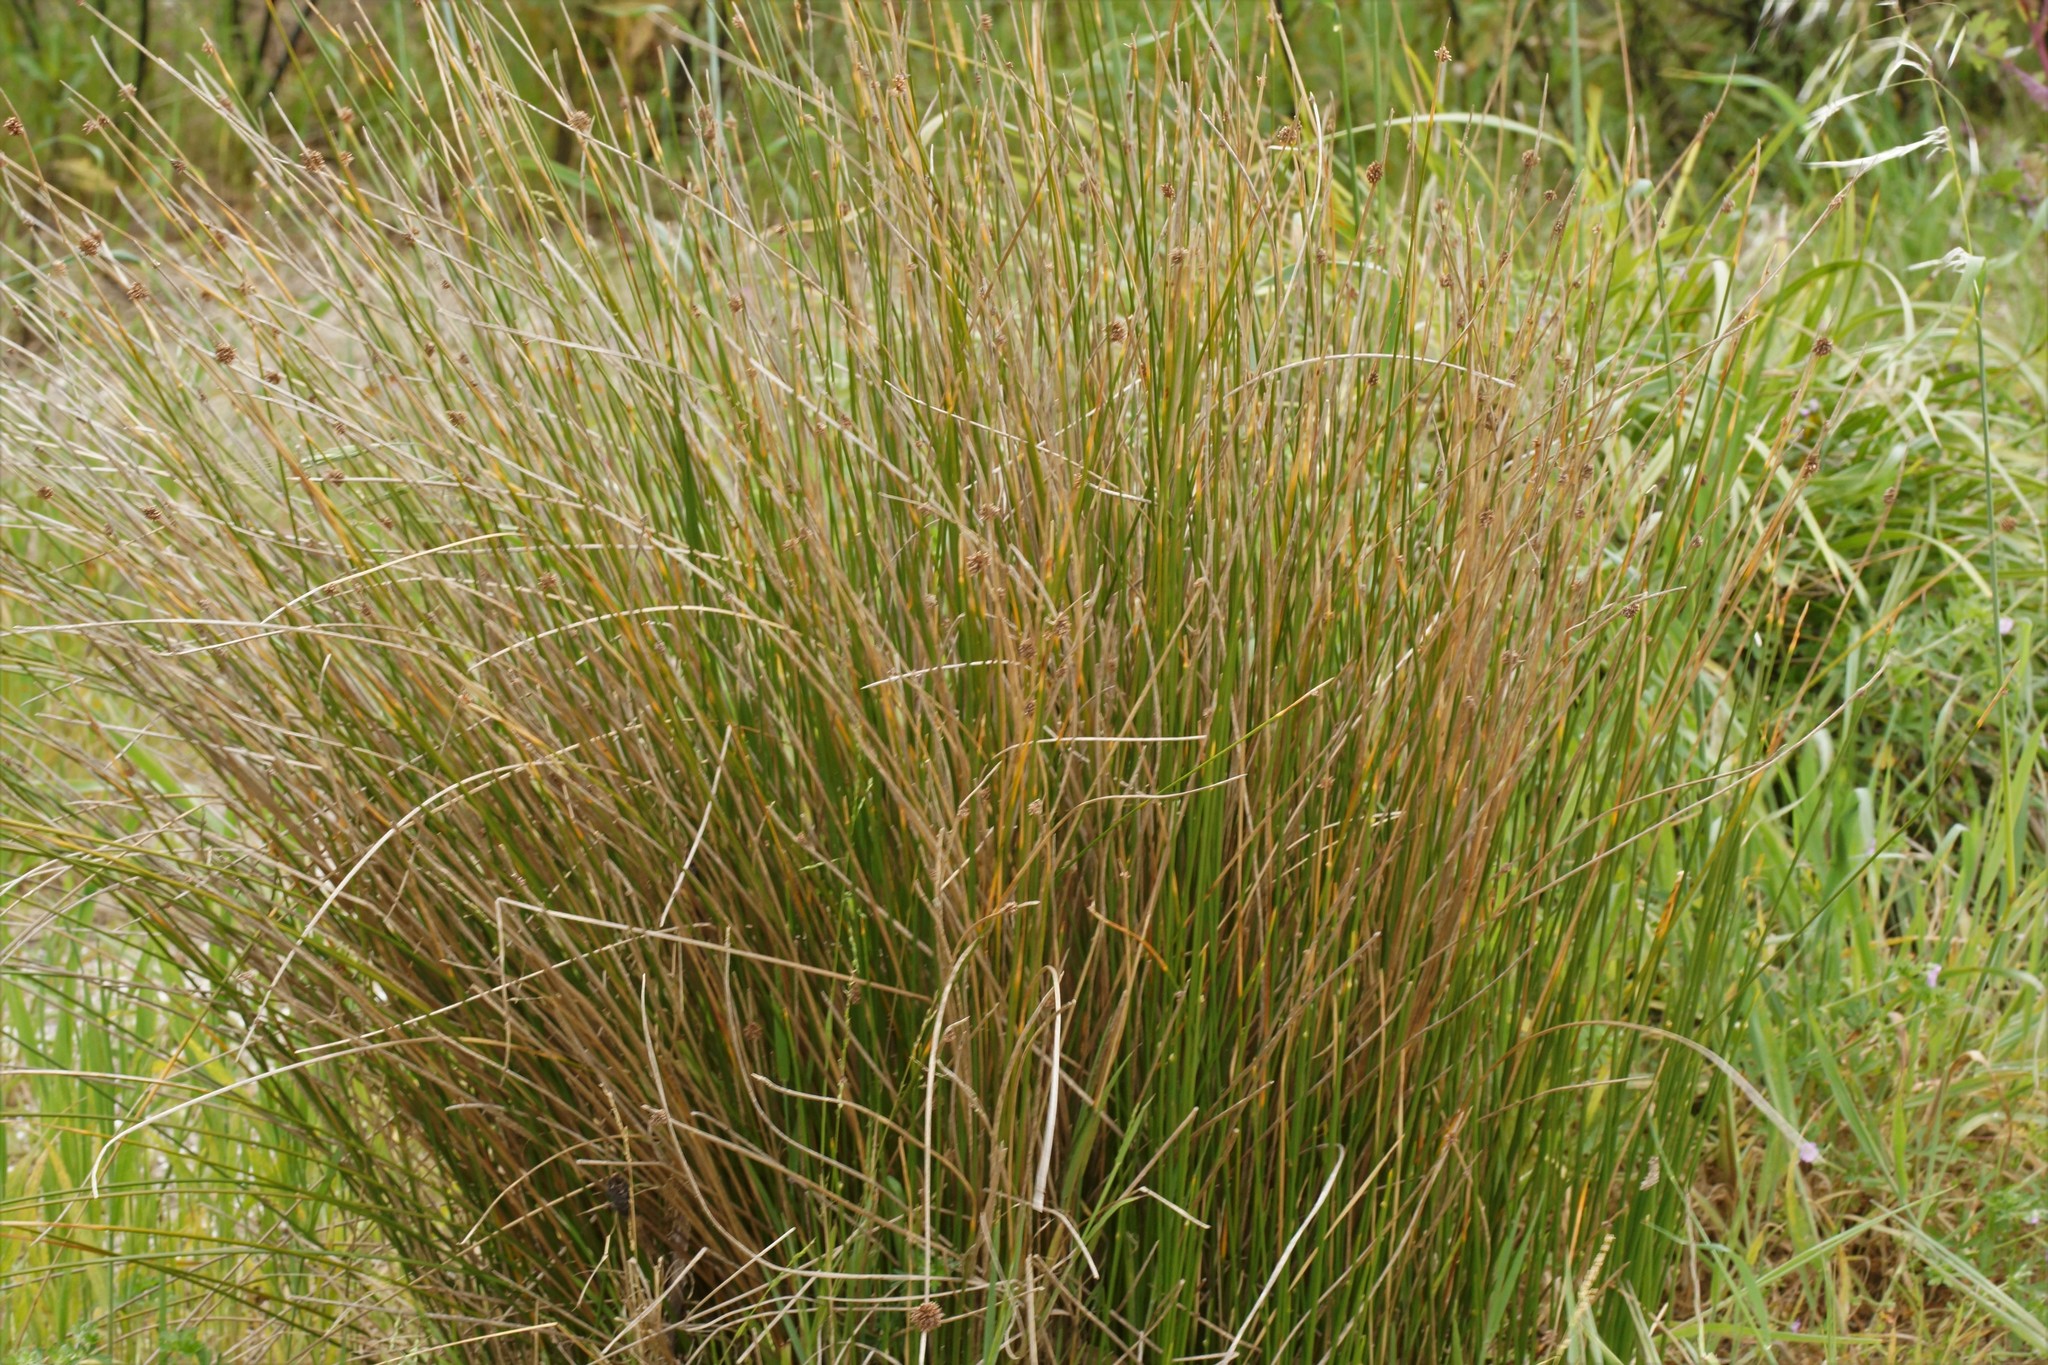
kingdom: Plantae
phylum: Tracheophyta
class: Liliopsida
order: Poales
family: Cyperaceae
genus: Ficinia
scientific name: Ficinia nodosa
